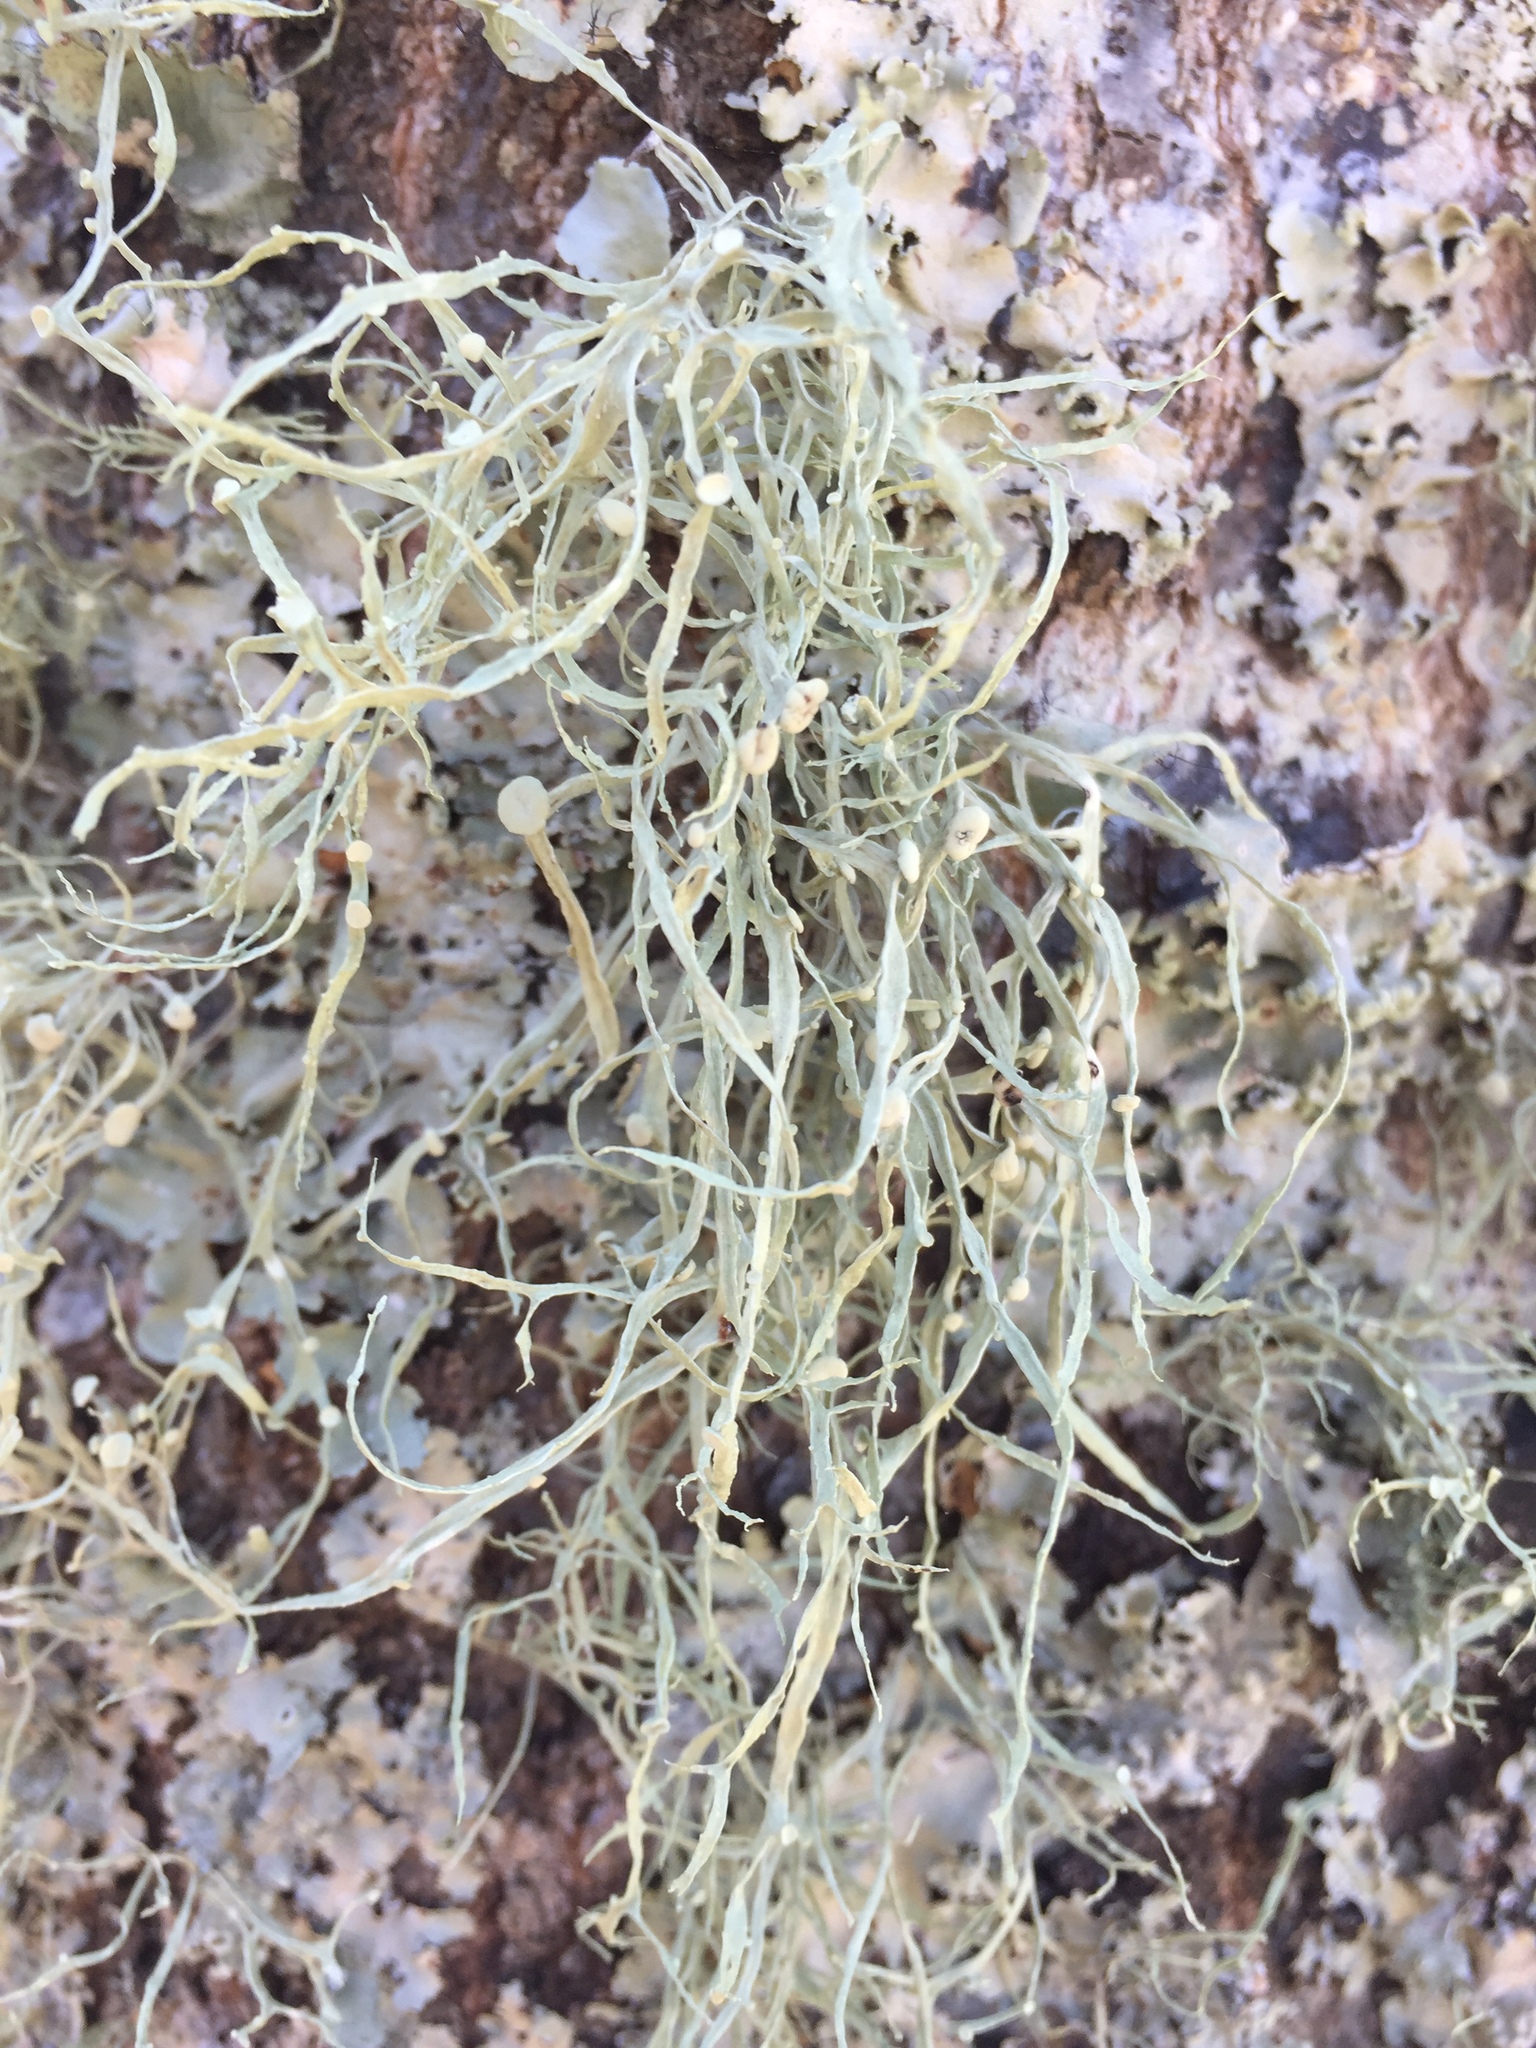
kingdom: Fungi
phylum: Ascomycota
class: Lecanoromycetes
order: Lecanorales
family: Ramalinaceae
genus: Ramalina
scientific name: Ramalina stenospora
